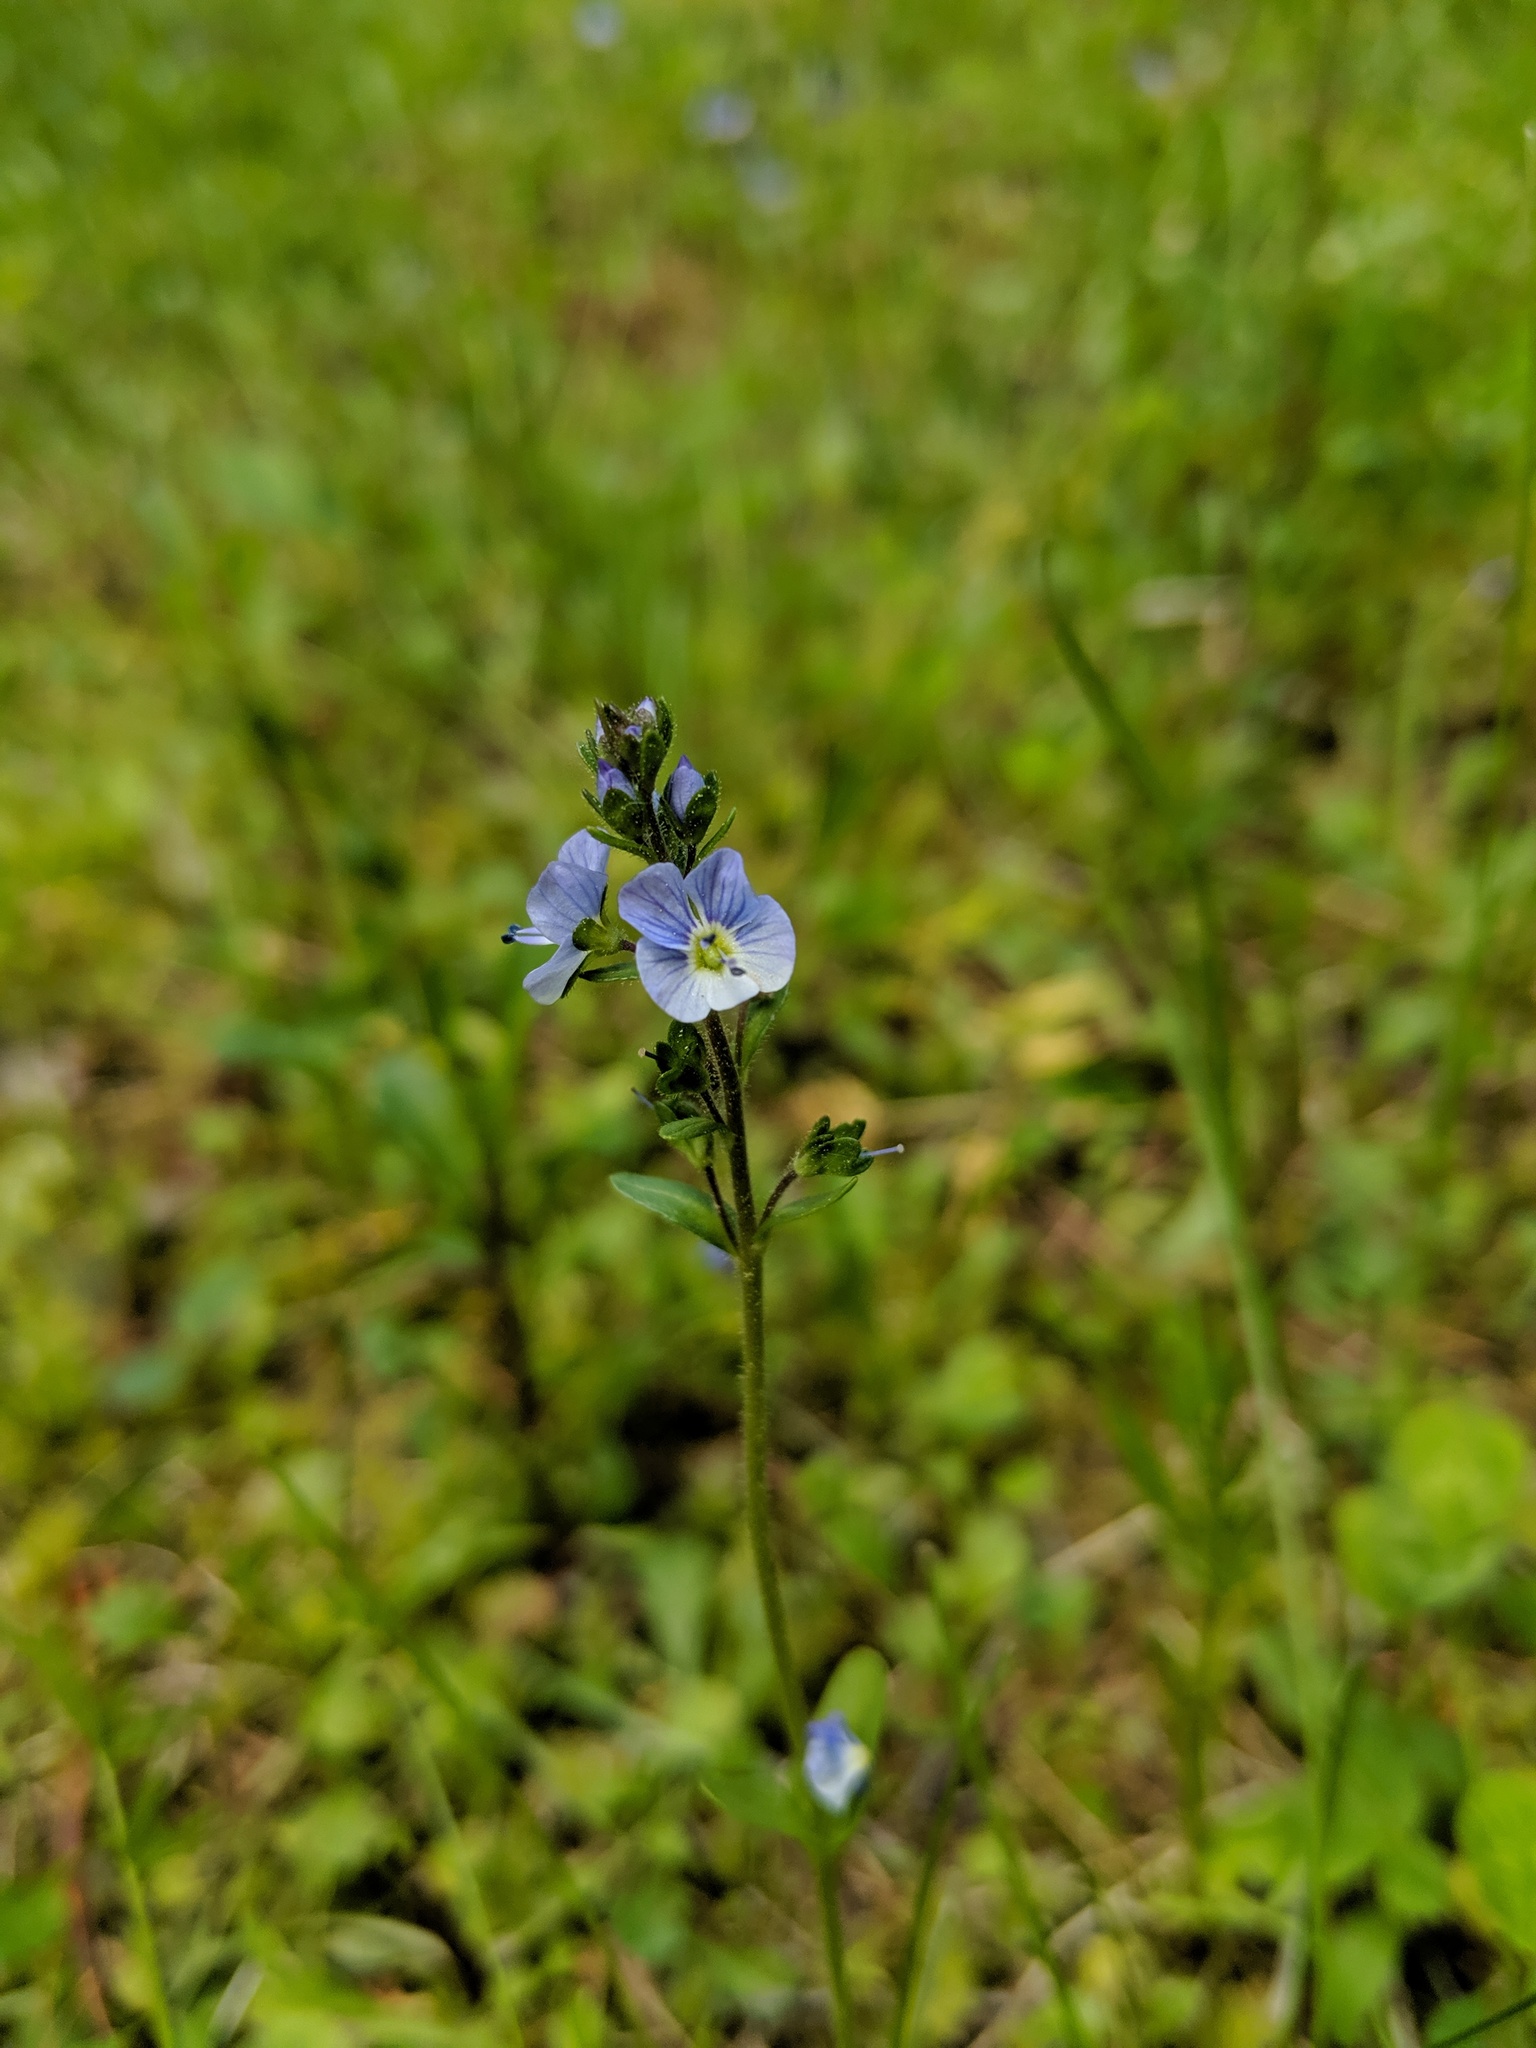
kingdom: Plantae
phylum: Tracheophyta
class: Magnoliopsida
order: Lamiales
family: Plantaginaceae
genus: Veronica
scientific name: Veronica serpyllifolia
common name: Thyme-leaved speedwell
